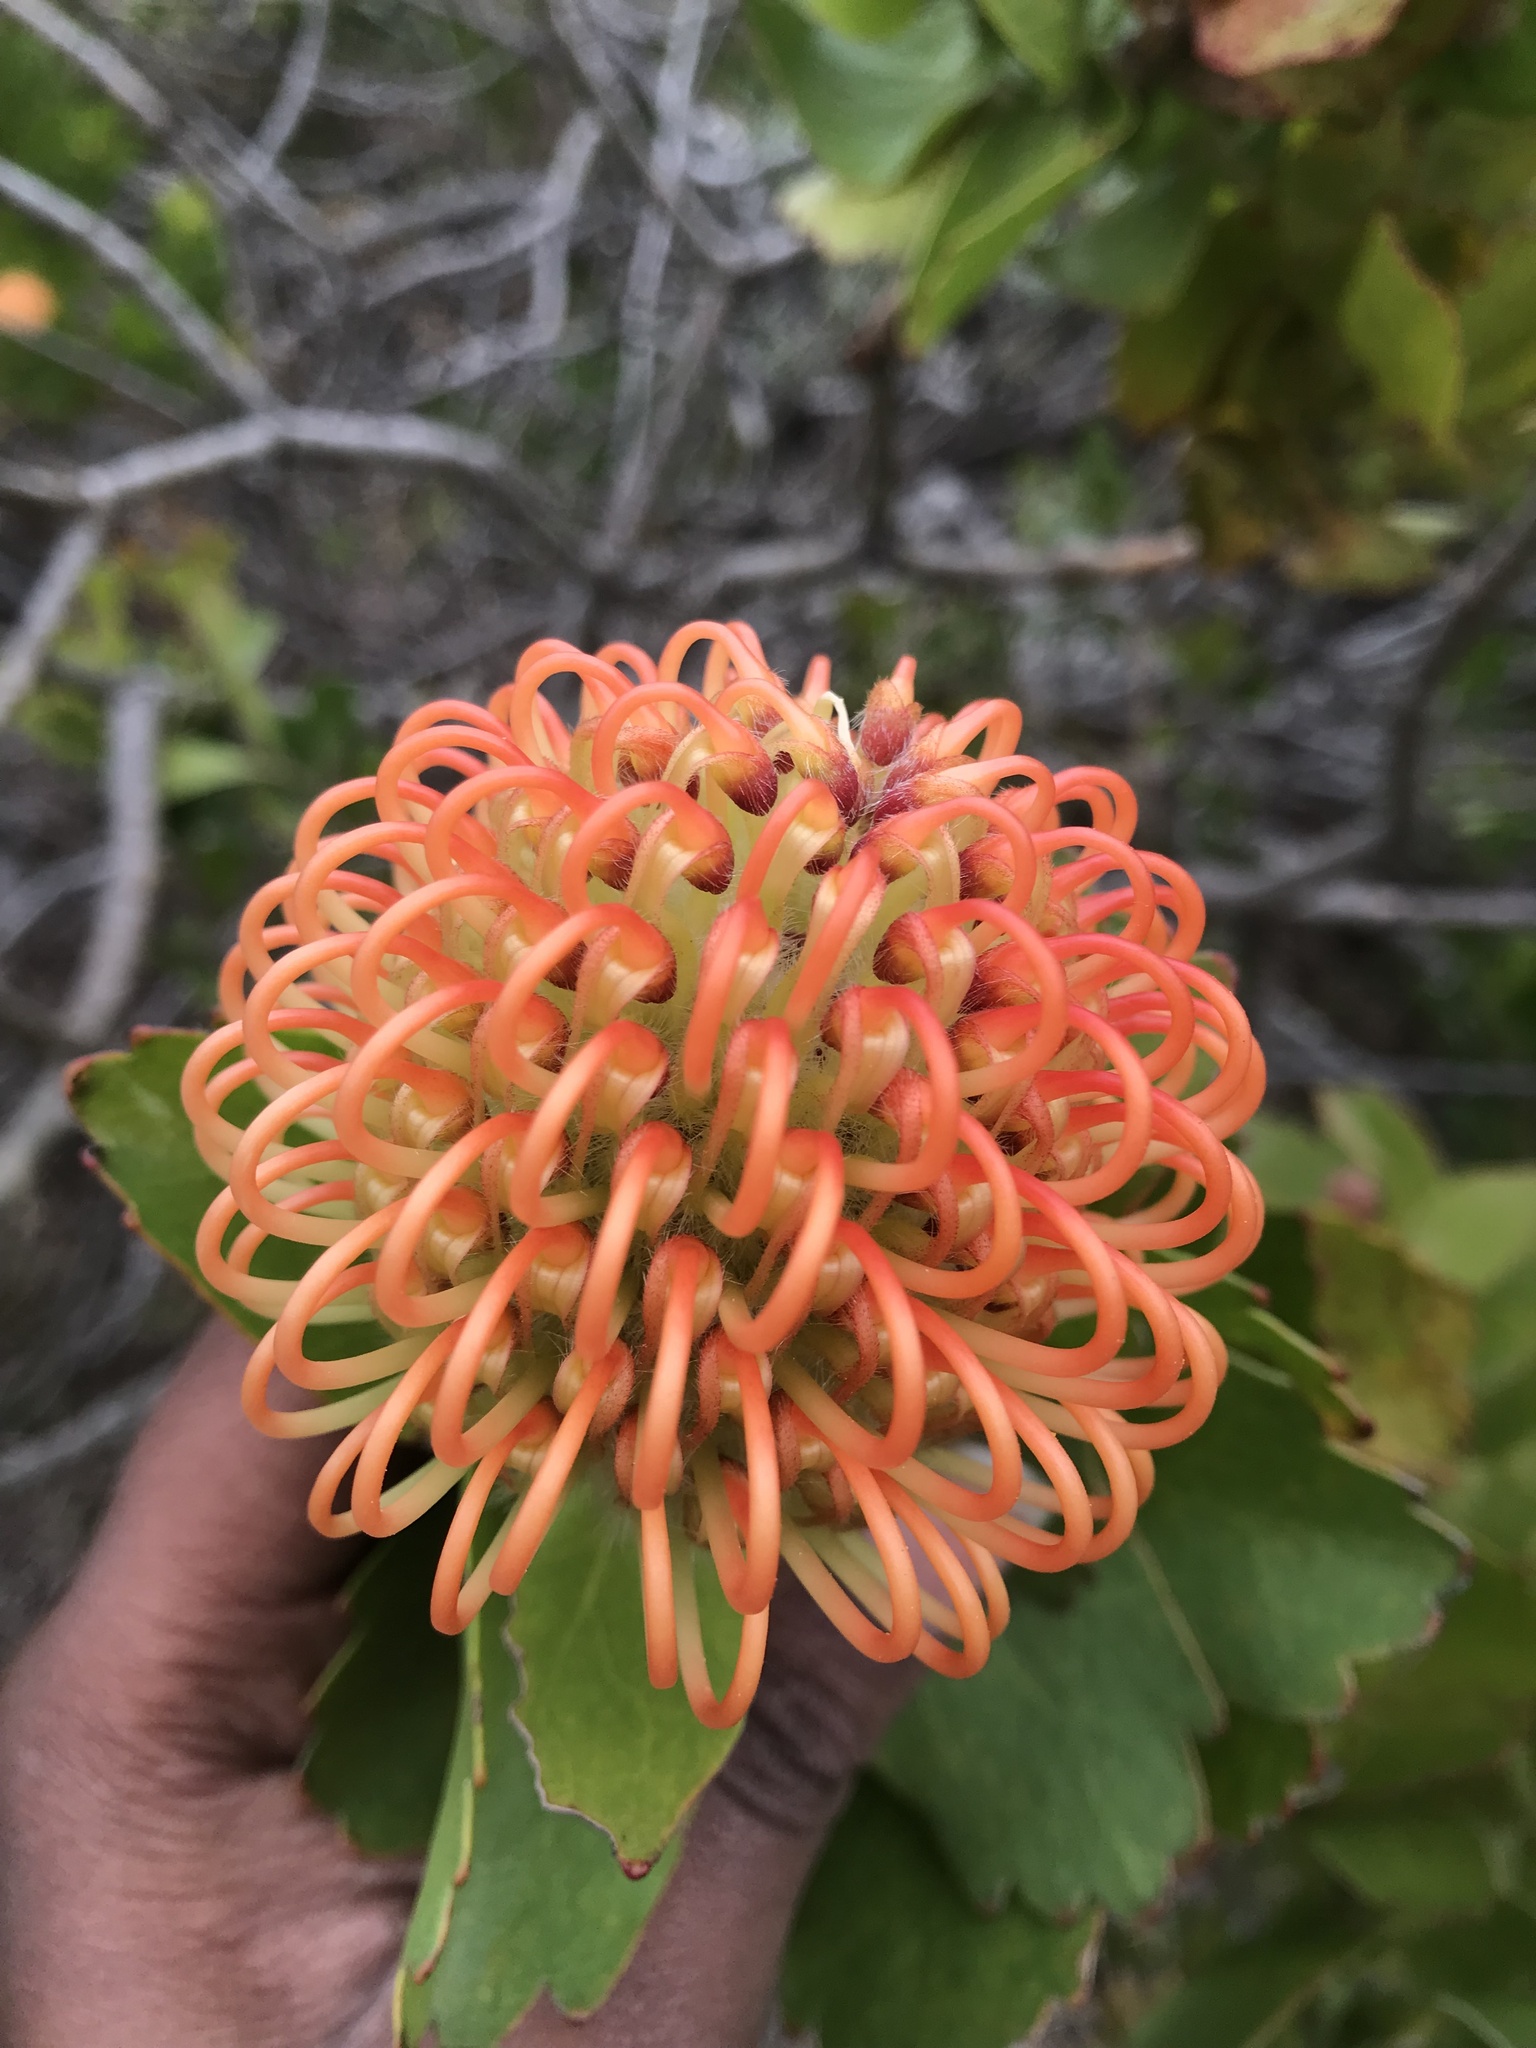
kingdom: Plantae
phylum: Tracheophyta
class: Magnoliopsida
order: Proteales
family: Proteaceae
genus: Leucospermum
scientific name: Leucospermum patersonii
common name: False tree pincushion
